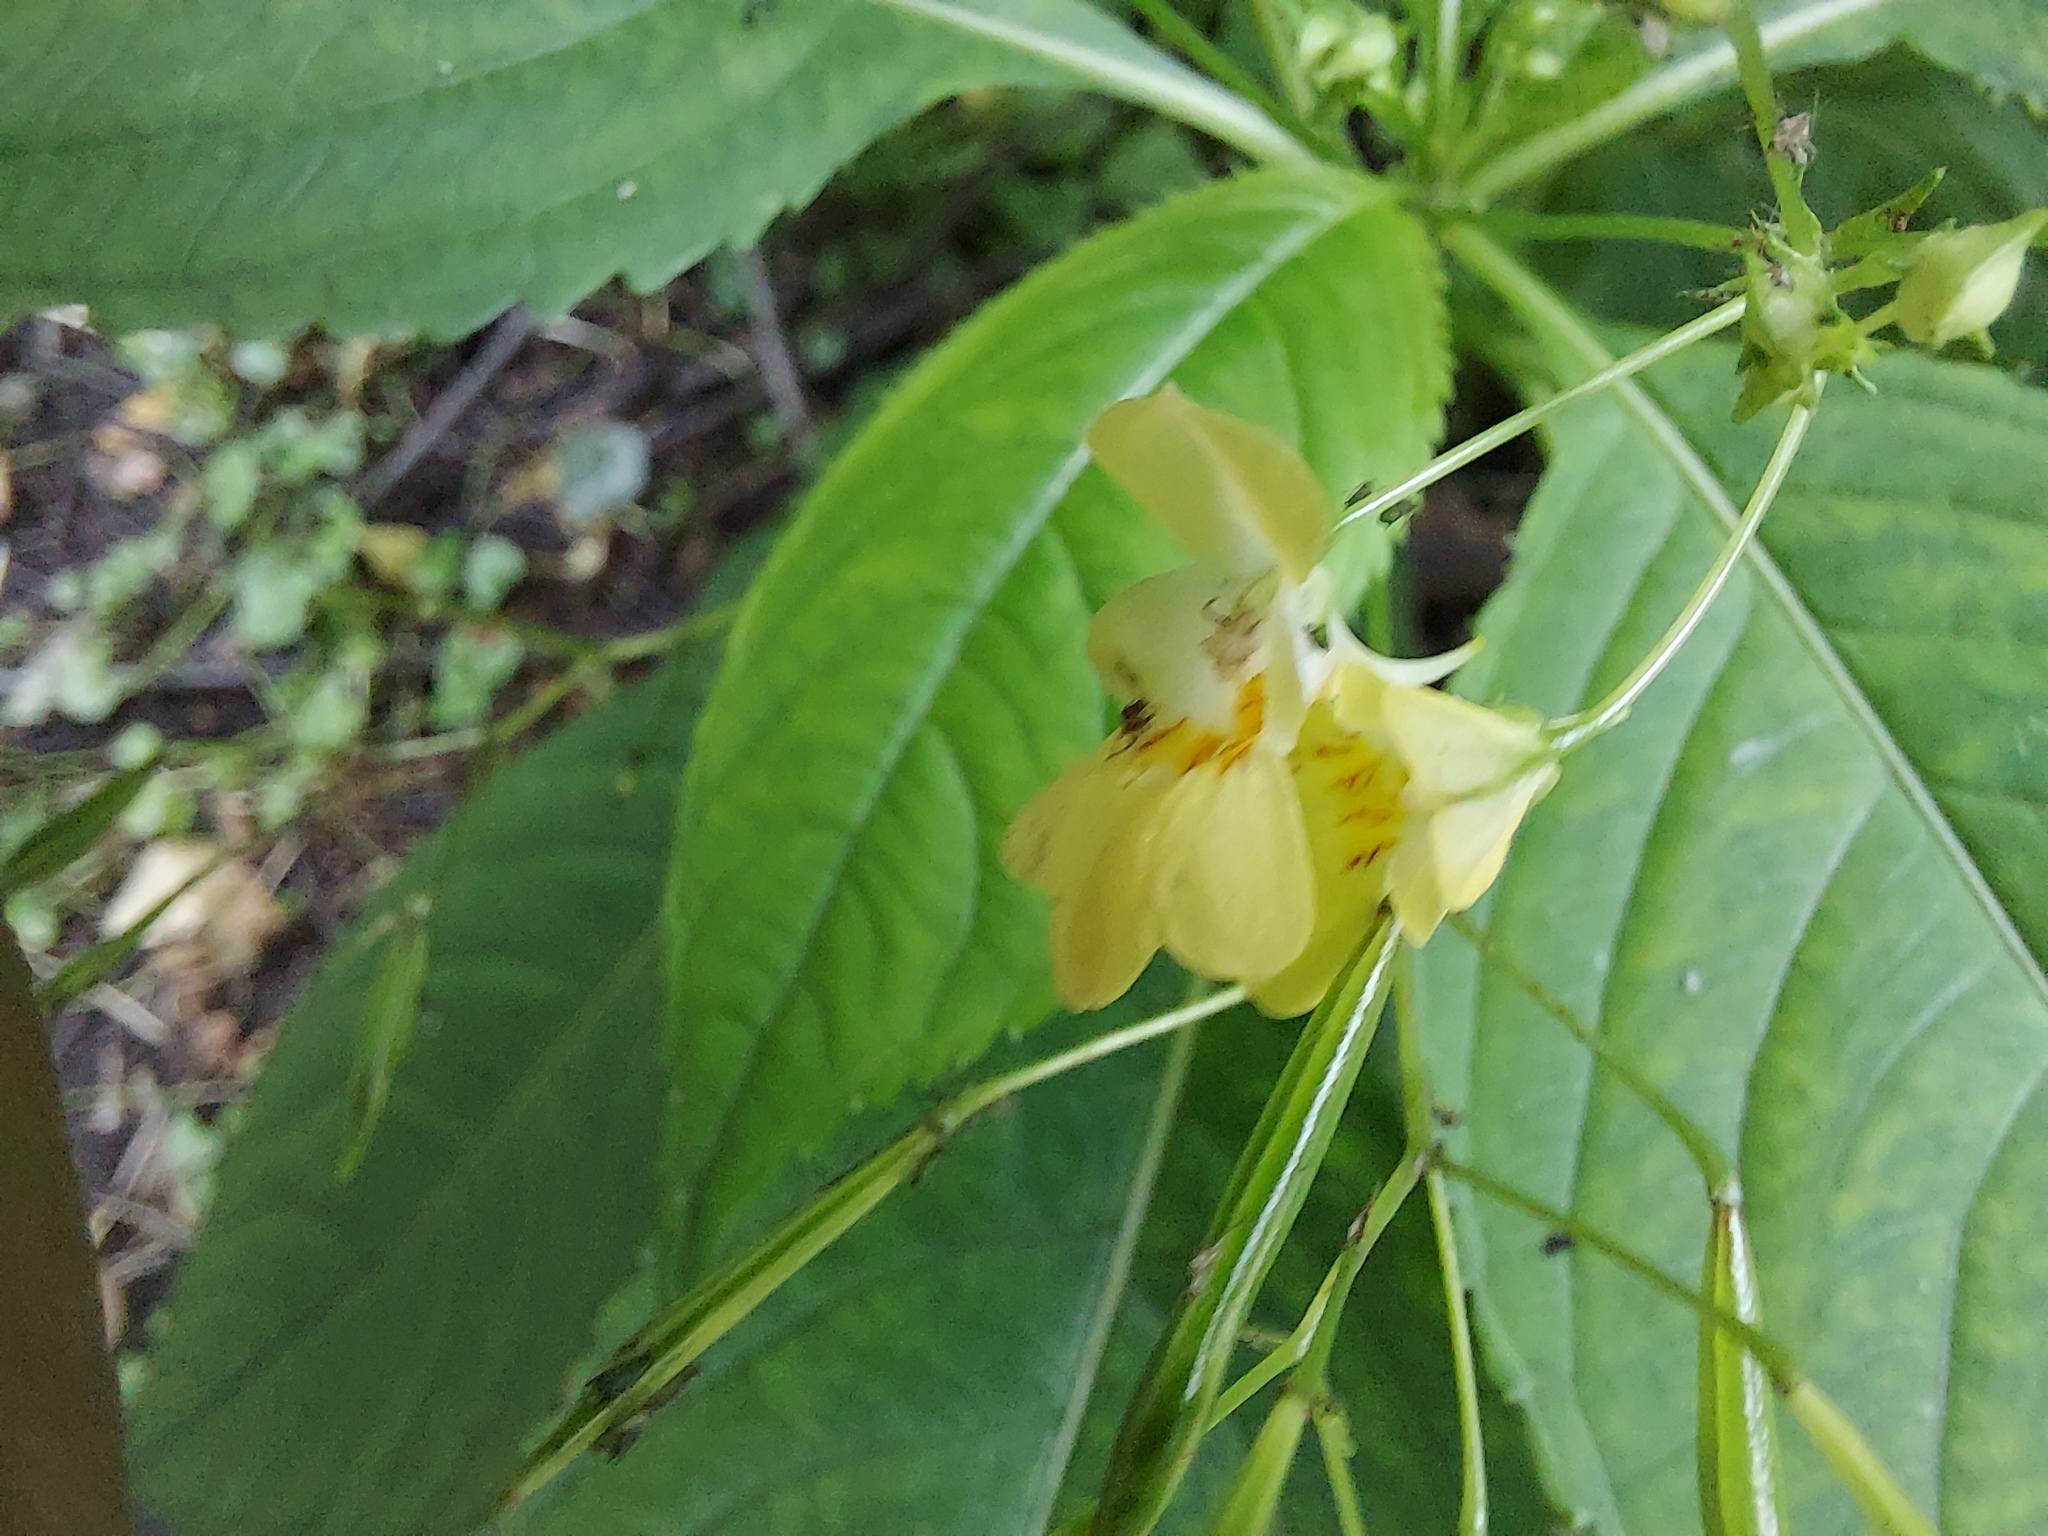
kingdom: Plantae
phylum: Tracheophyta
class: Magnoliopsida
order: Ericales
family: Balsaminaceae
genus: Impatiens
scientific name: Impatiens parviflora
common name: Small balsam
